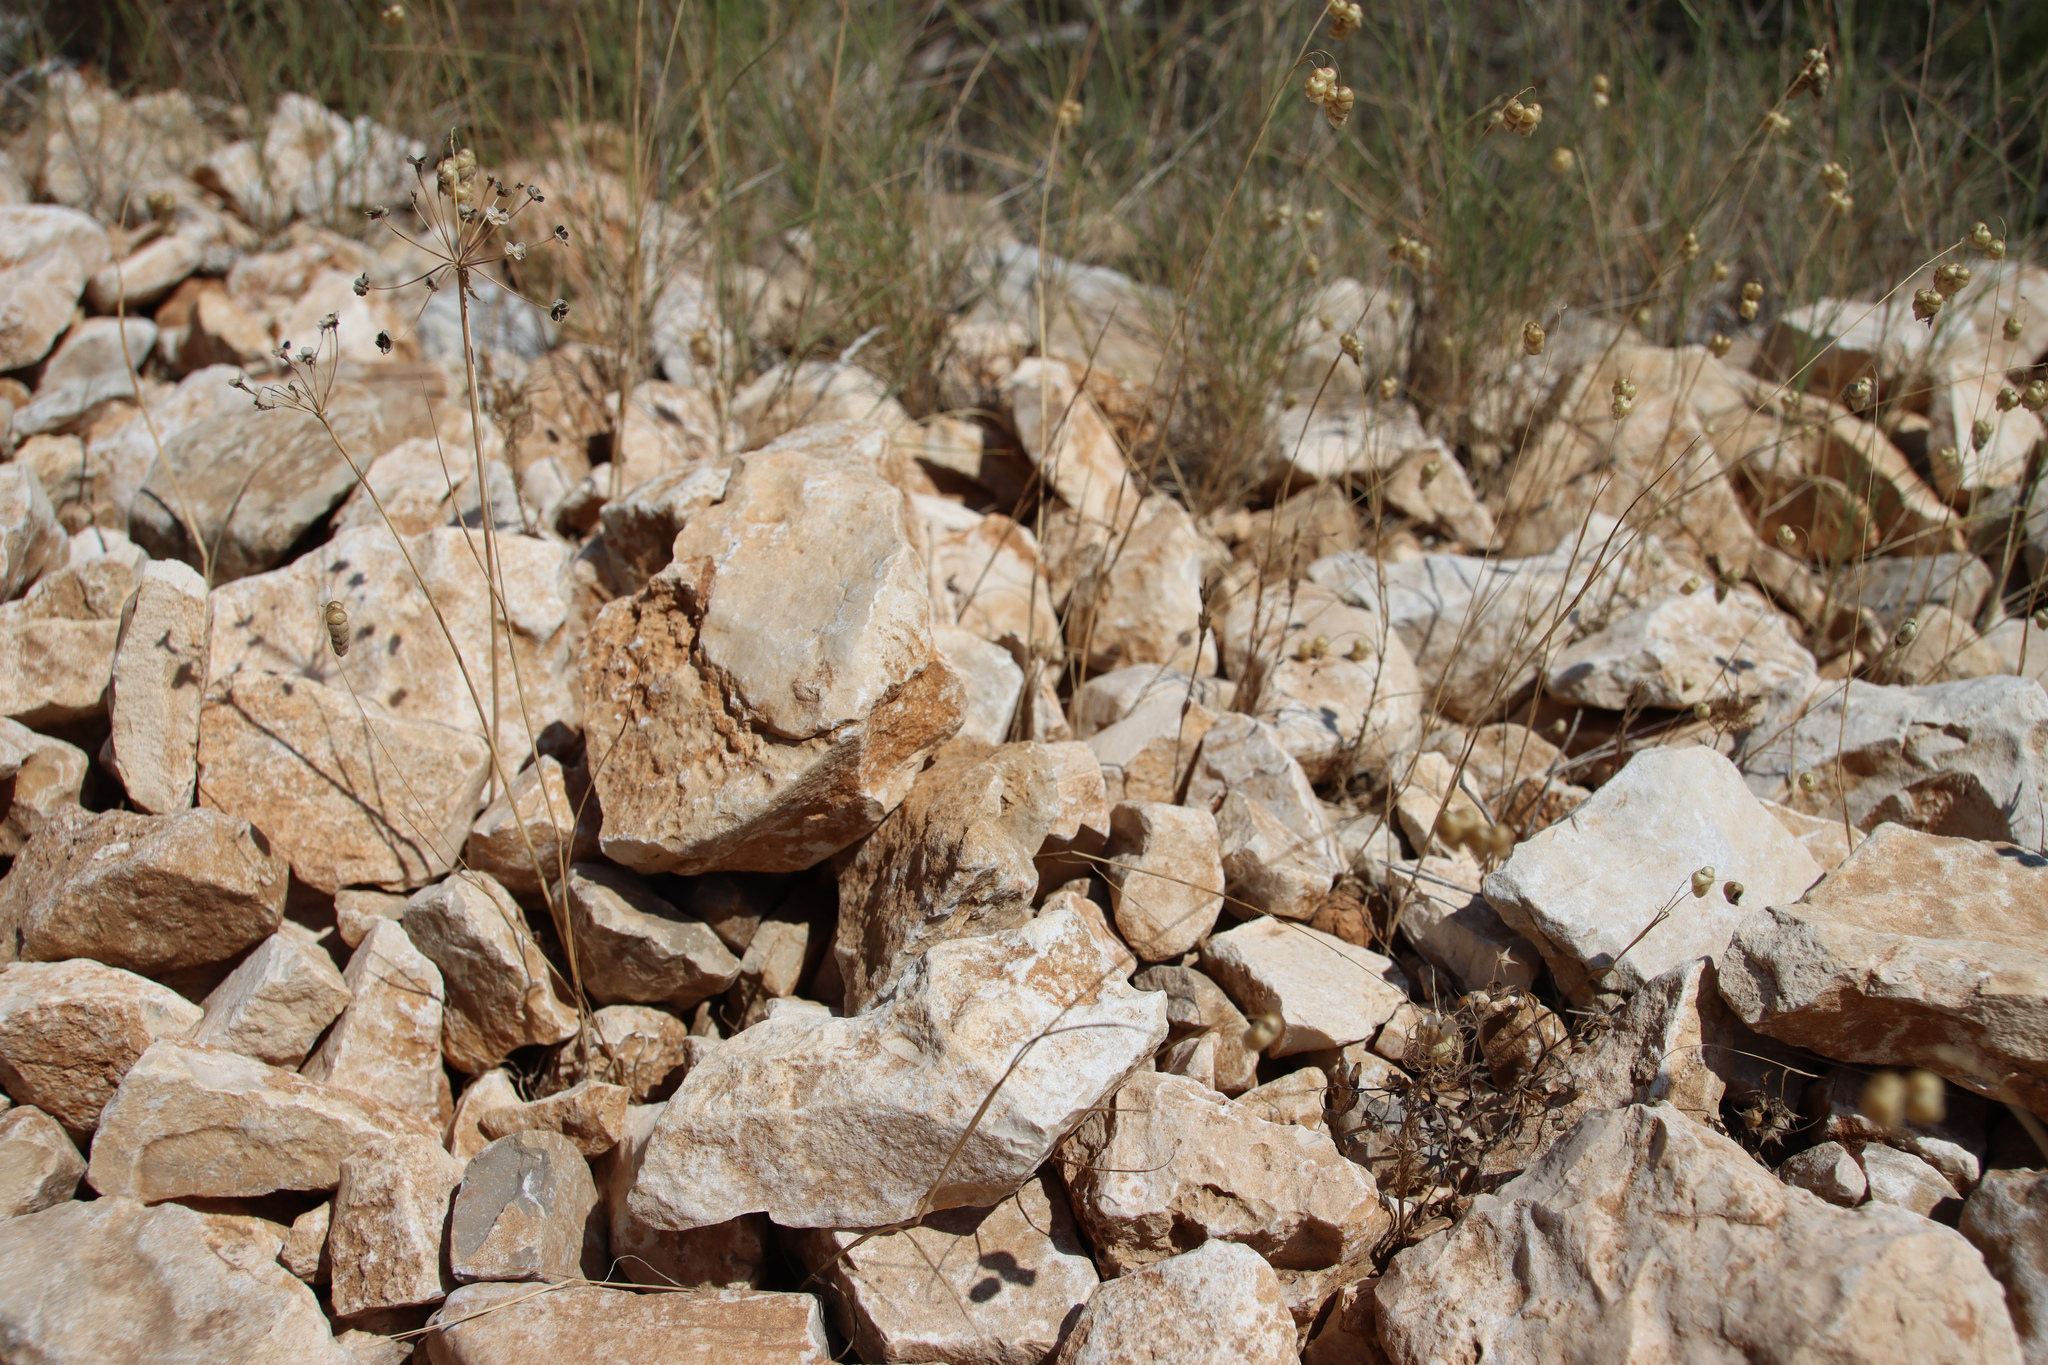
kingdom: Plantae
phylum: Tracheophyta
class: Liliopsida
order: Poales
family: Poaceae
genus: Briza
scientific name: Briza maxima
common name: Big quakinggrass
